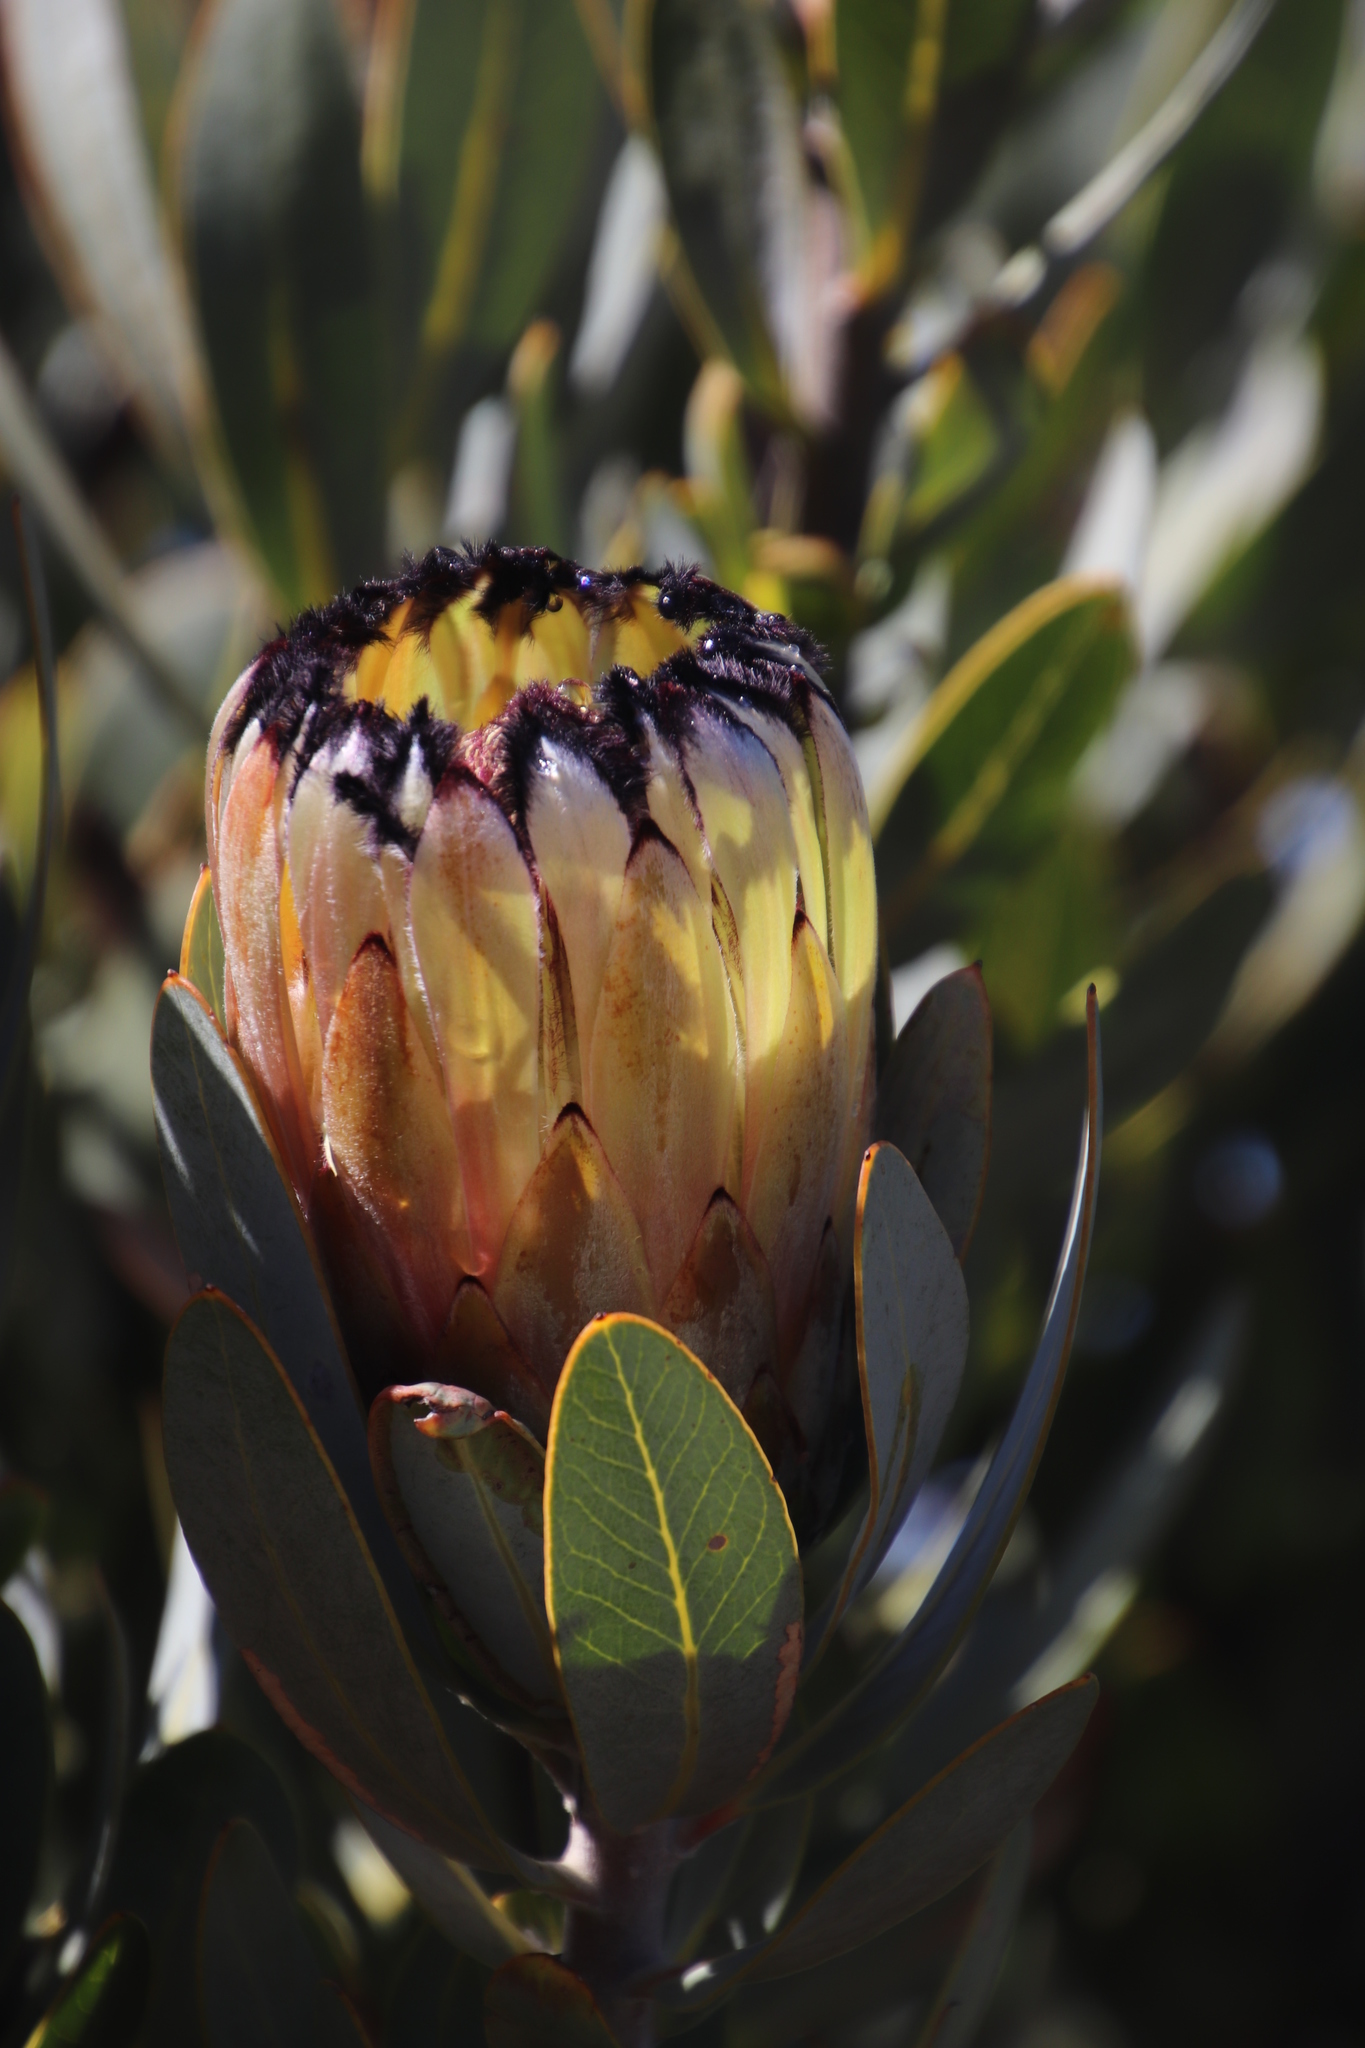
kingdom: Plantae
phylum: Tracheophyta
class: Magnoliopsida
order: Proteales
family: Proteaceae
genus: Protea
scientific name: Protea laurifolia
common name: Grey-leaf sugarbsh
